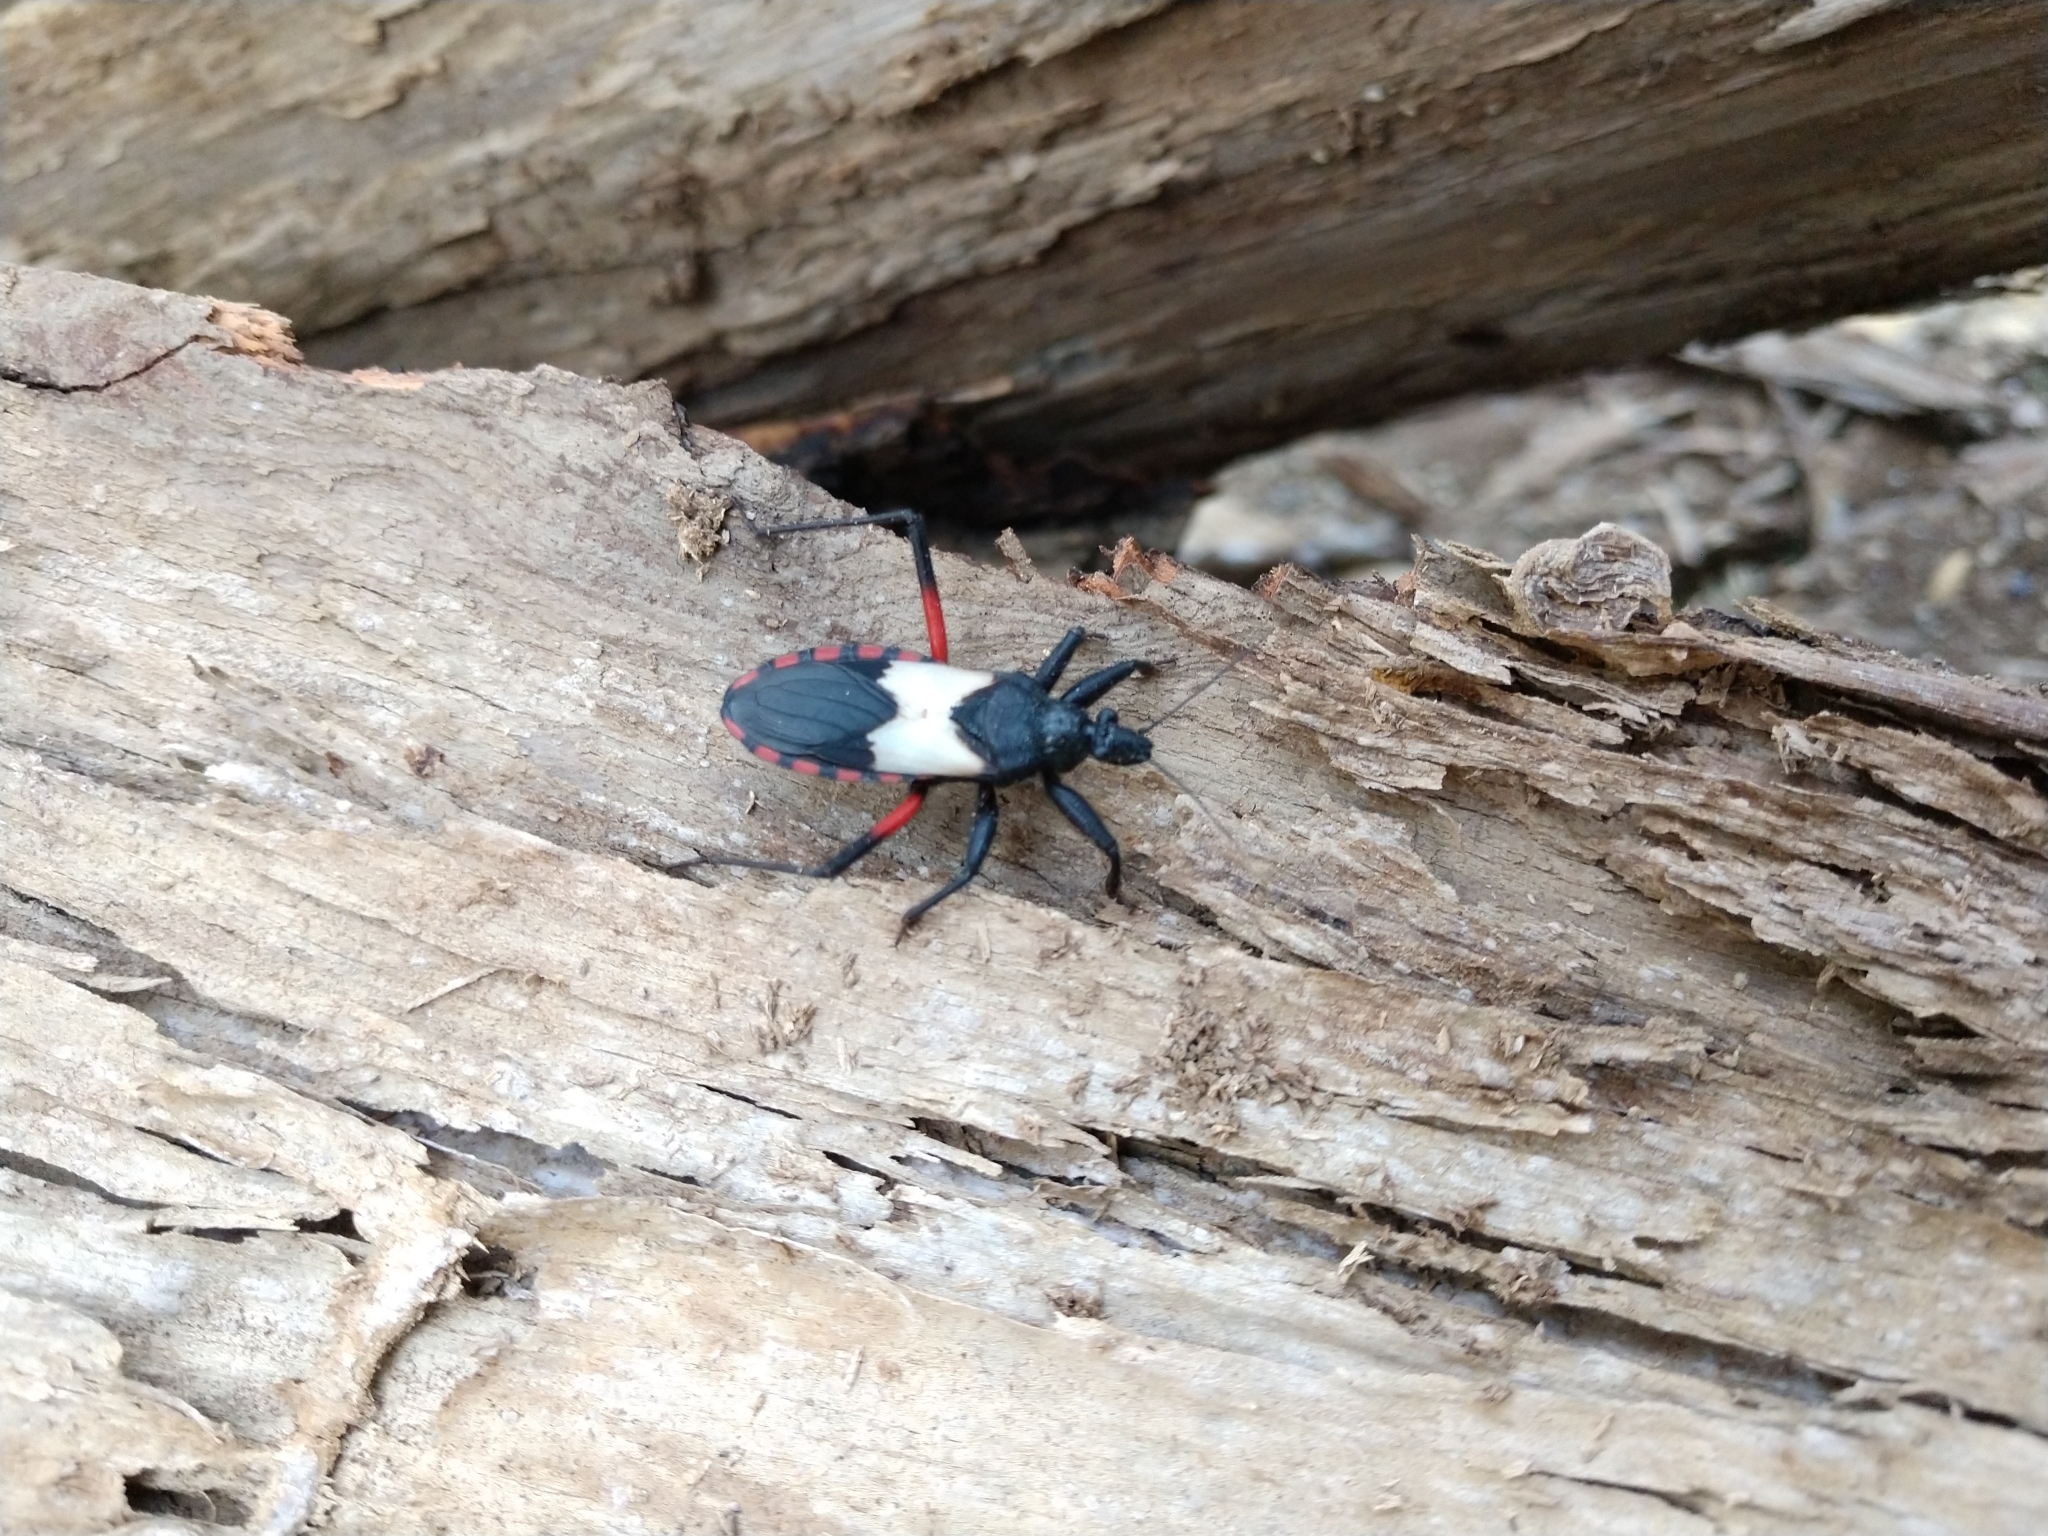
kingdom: Animalia
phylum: Arthropoda
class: Insecta
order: Hemiptera
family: Reduviidae
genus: Microtomus
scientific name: Microtomus purcis
